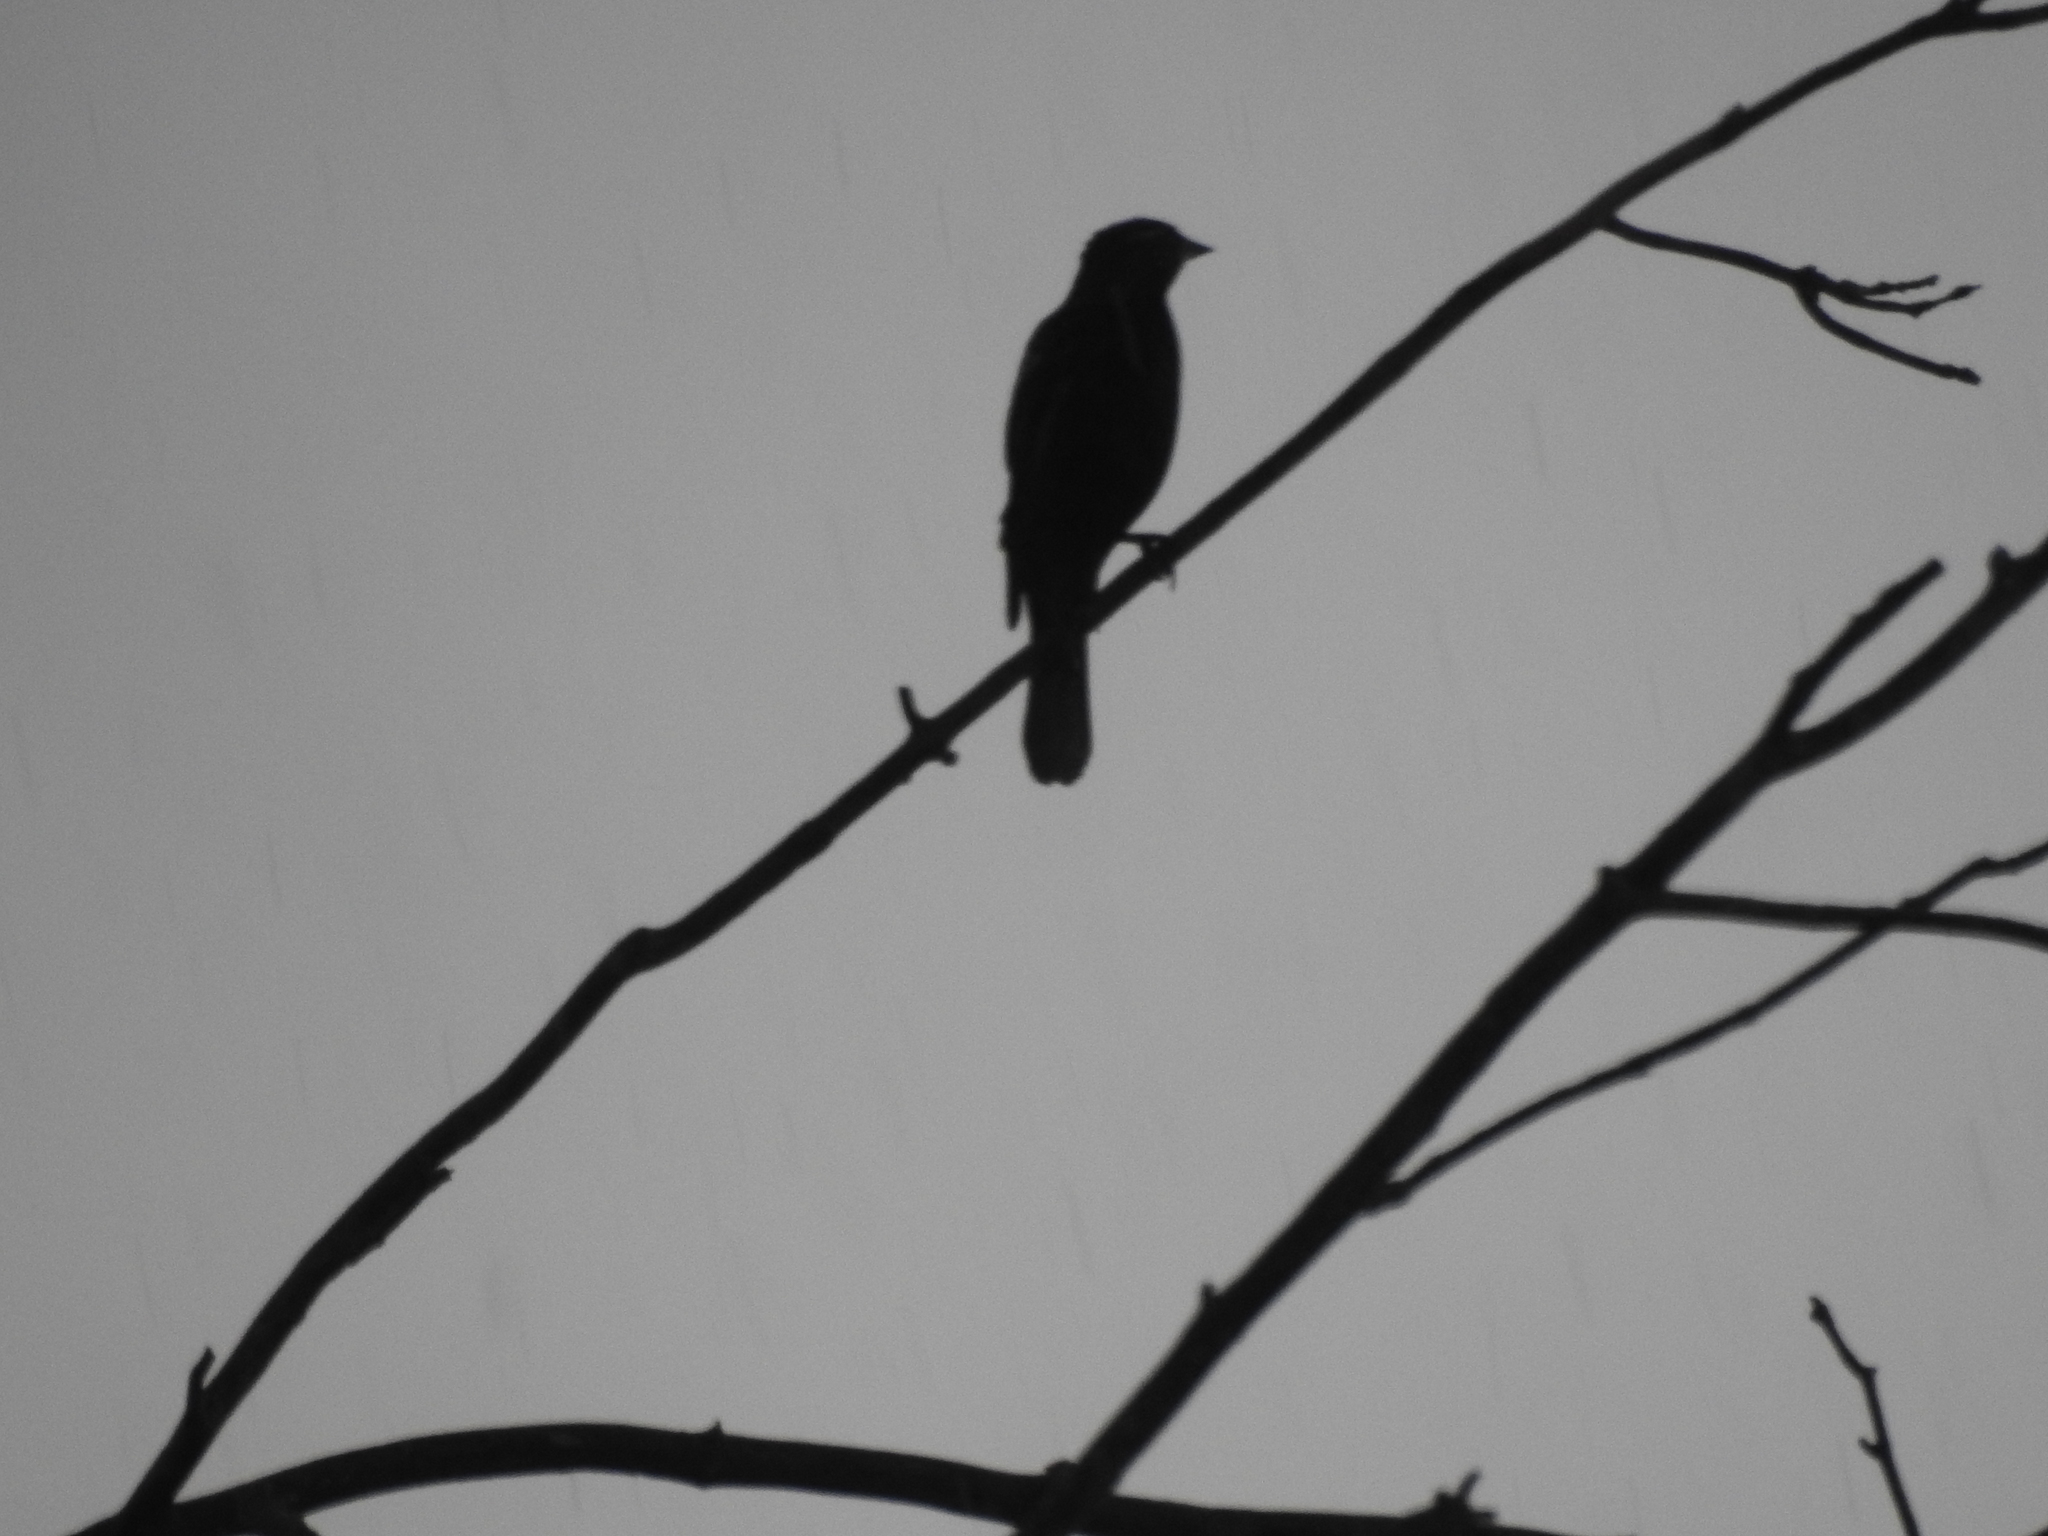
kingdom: Animalia
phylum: Chordata
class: Aves
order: Passeriformes
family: Icteridae
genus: Agelaius
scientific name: Agelaius phoeniceus
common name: Red-winged blackbird
